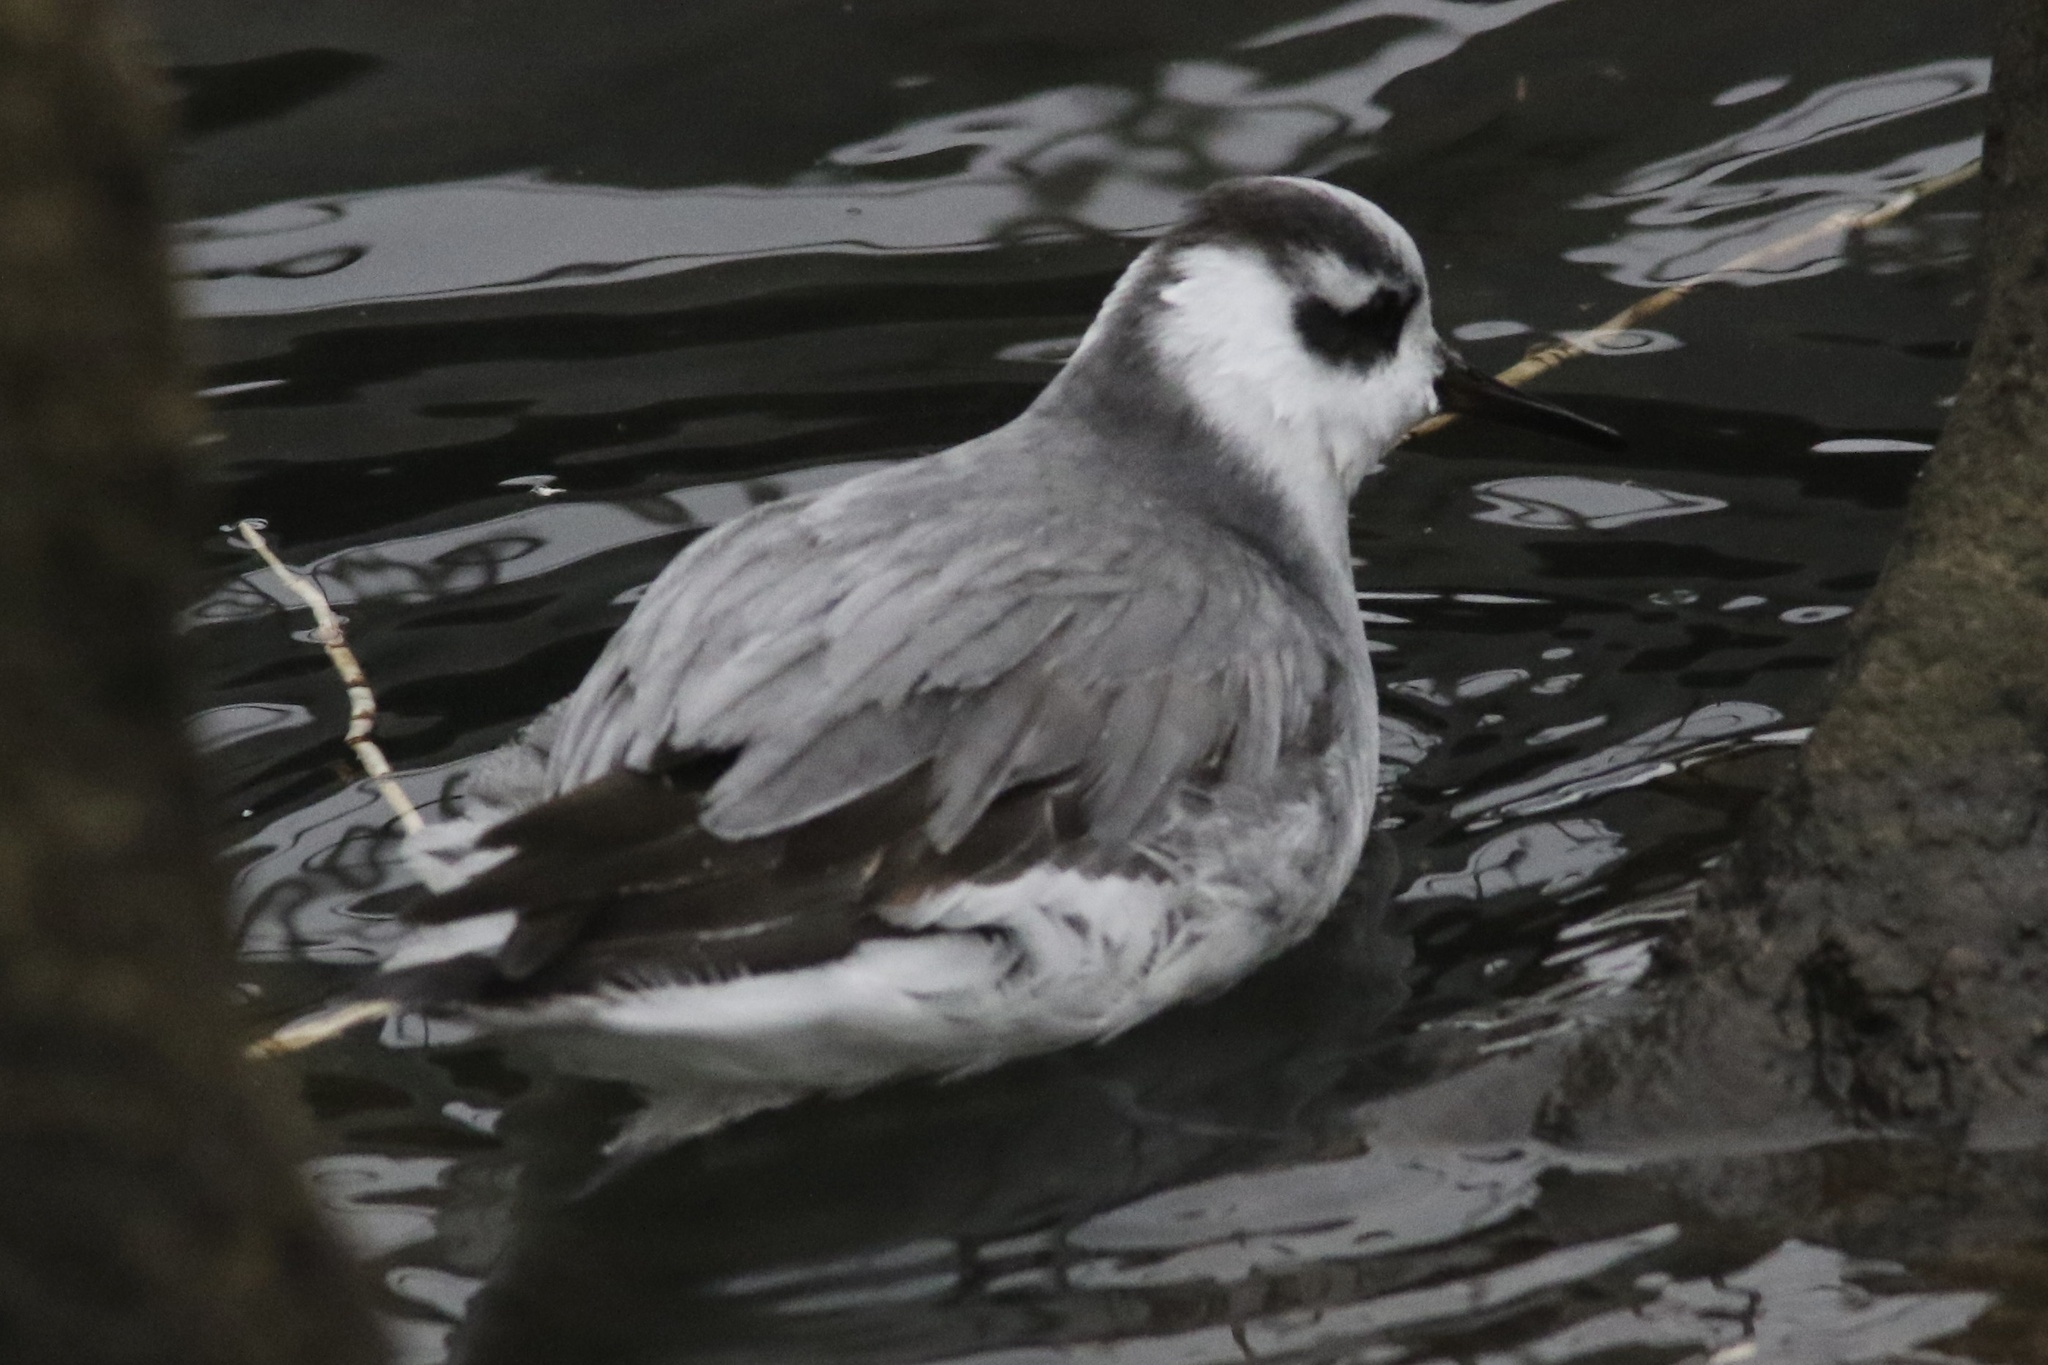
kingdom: Animalia
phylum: Chordata
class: Aves
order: Charadriiformes
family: Scolopacidae
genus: Phalaropus
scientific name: Phalaropus fulicarius
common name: Red phalarope
